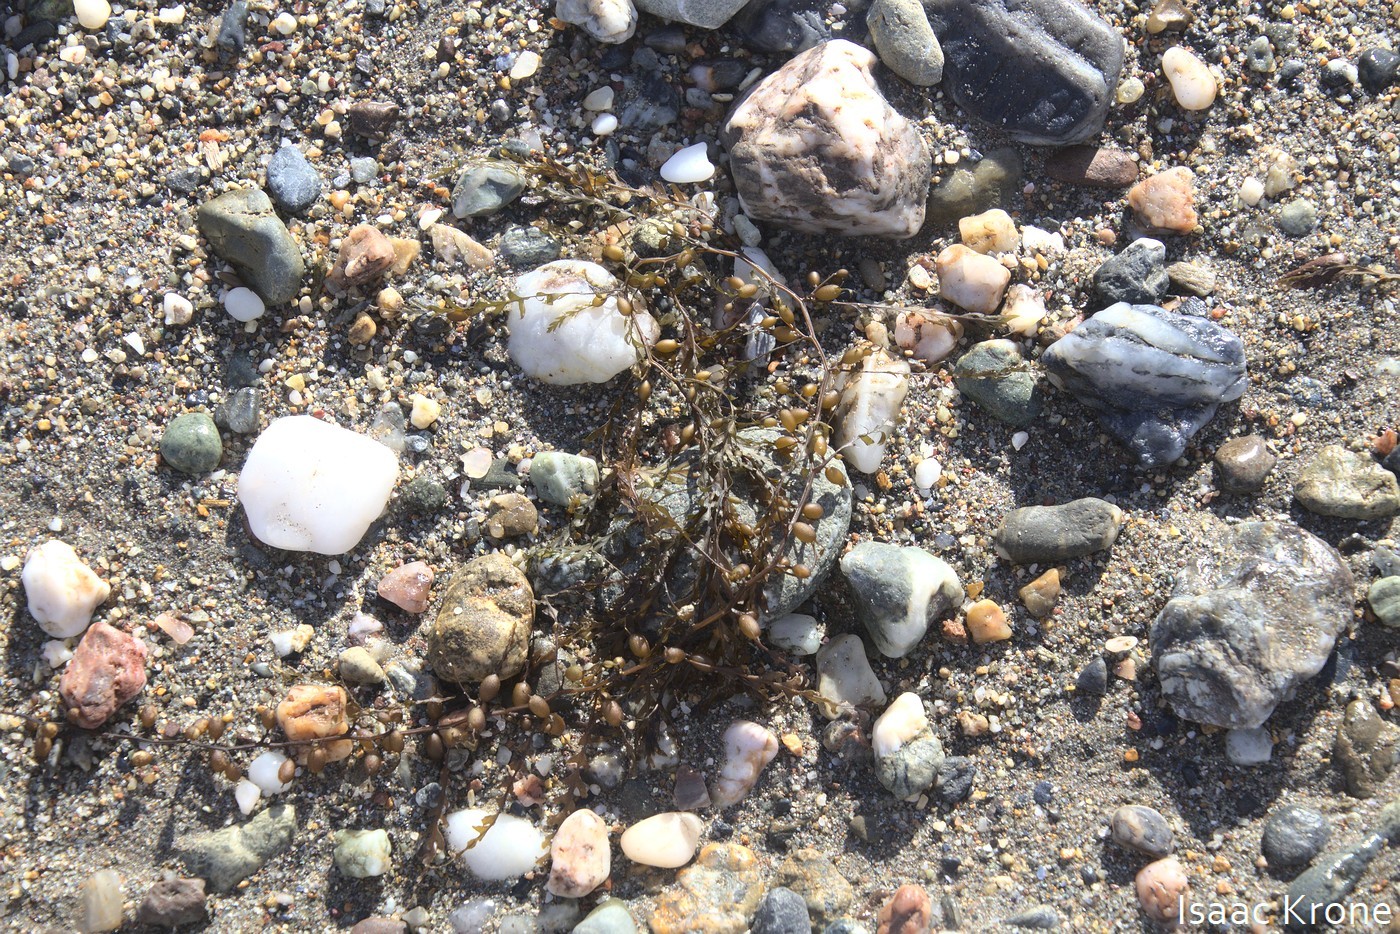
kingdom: Chromista
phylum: Ochrophyta
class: Phaeophyceae
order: Fucales
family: Sargassaceae
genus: Sargassum
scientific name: Sargassum horneri
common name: Devil weed
